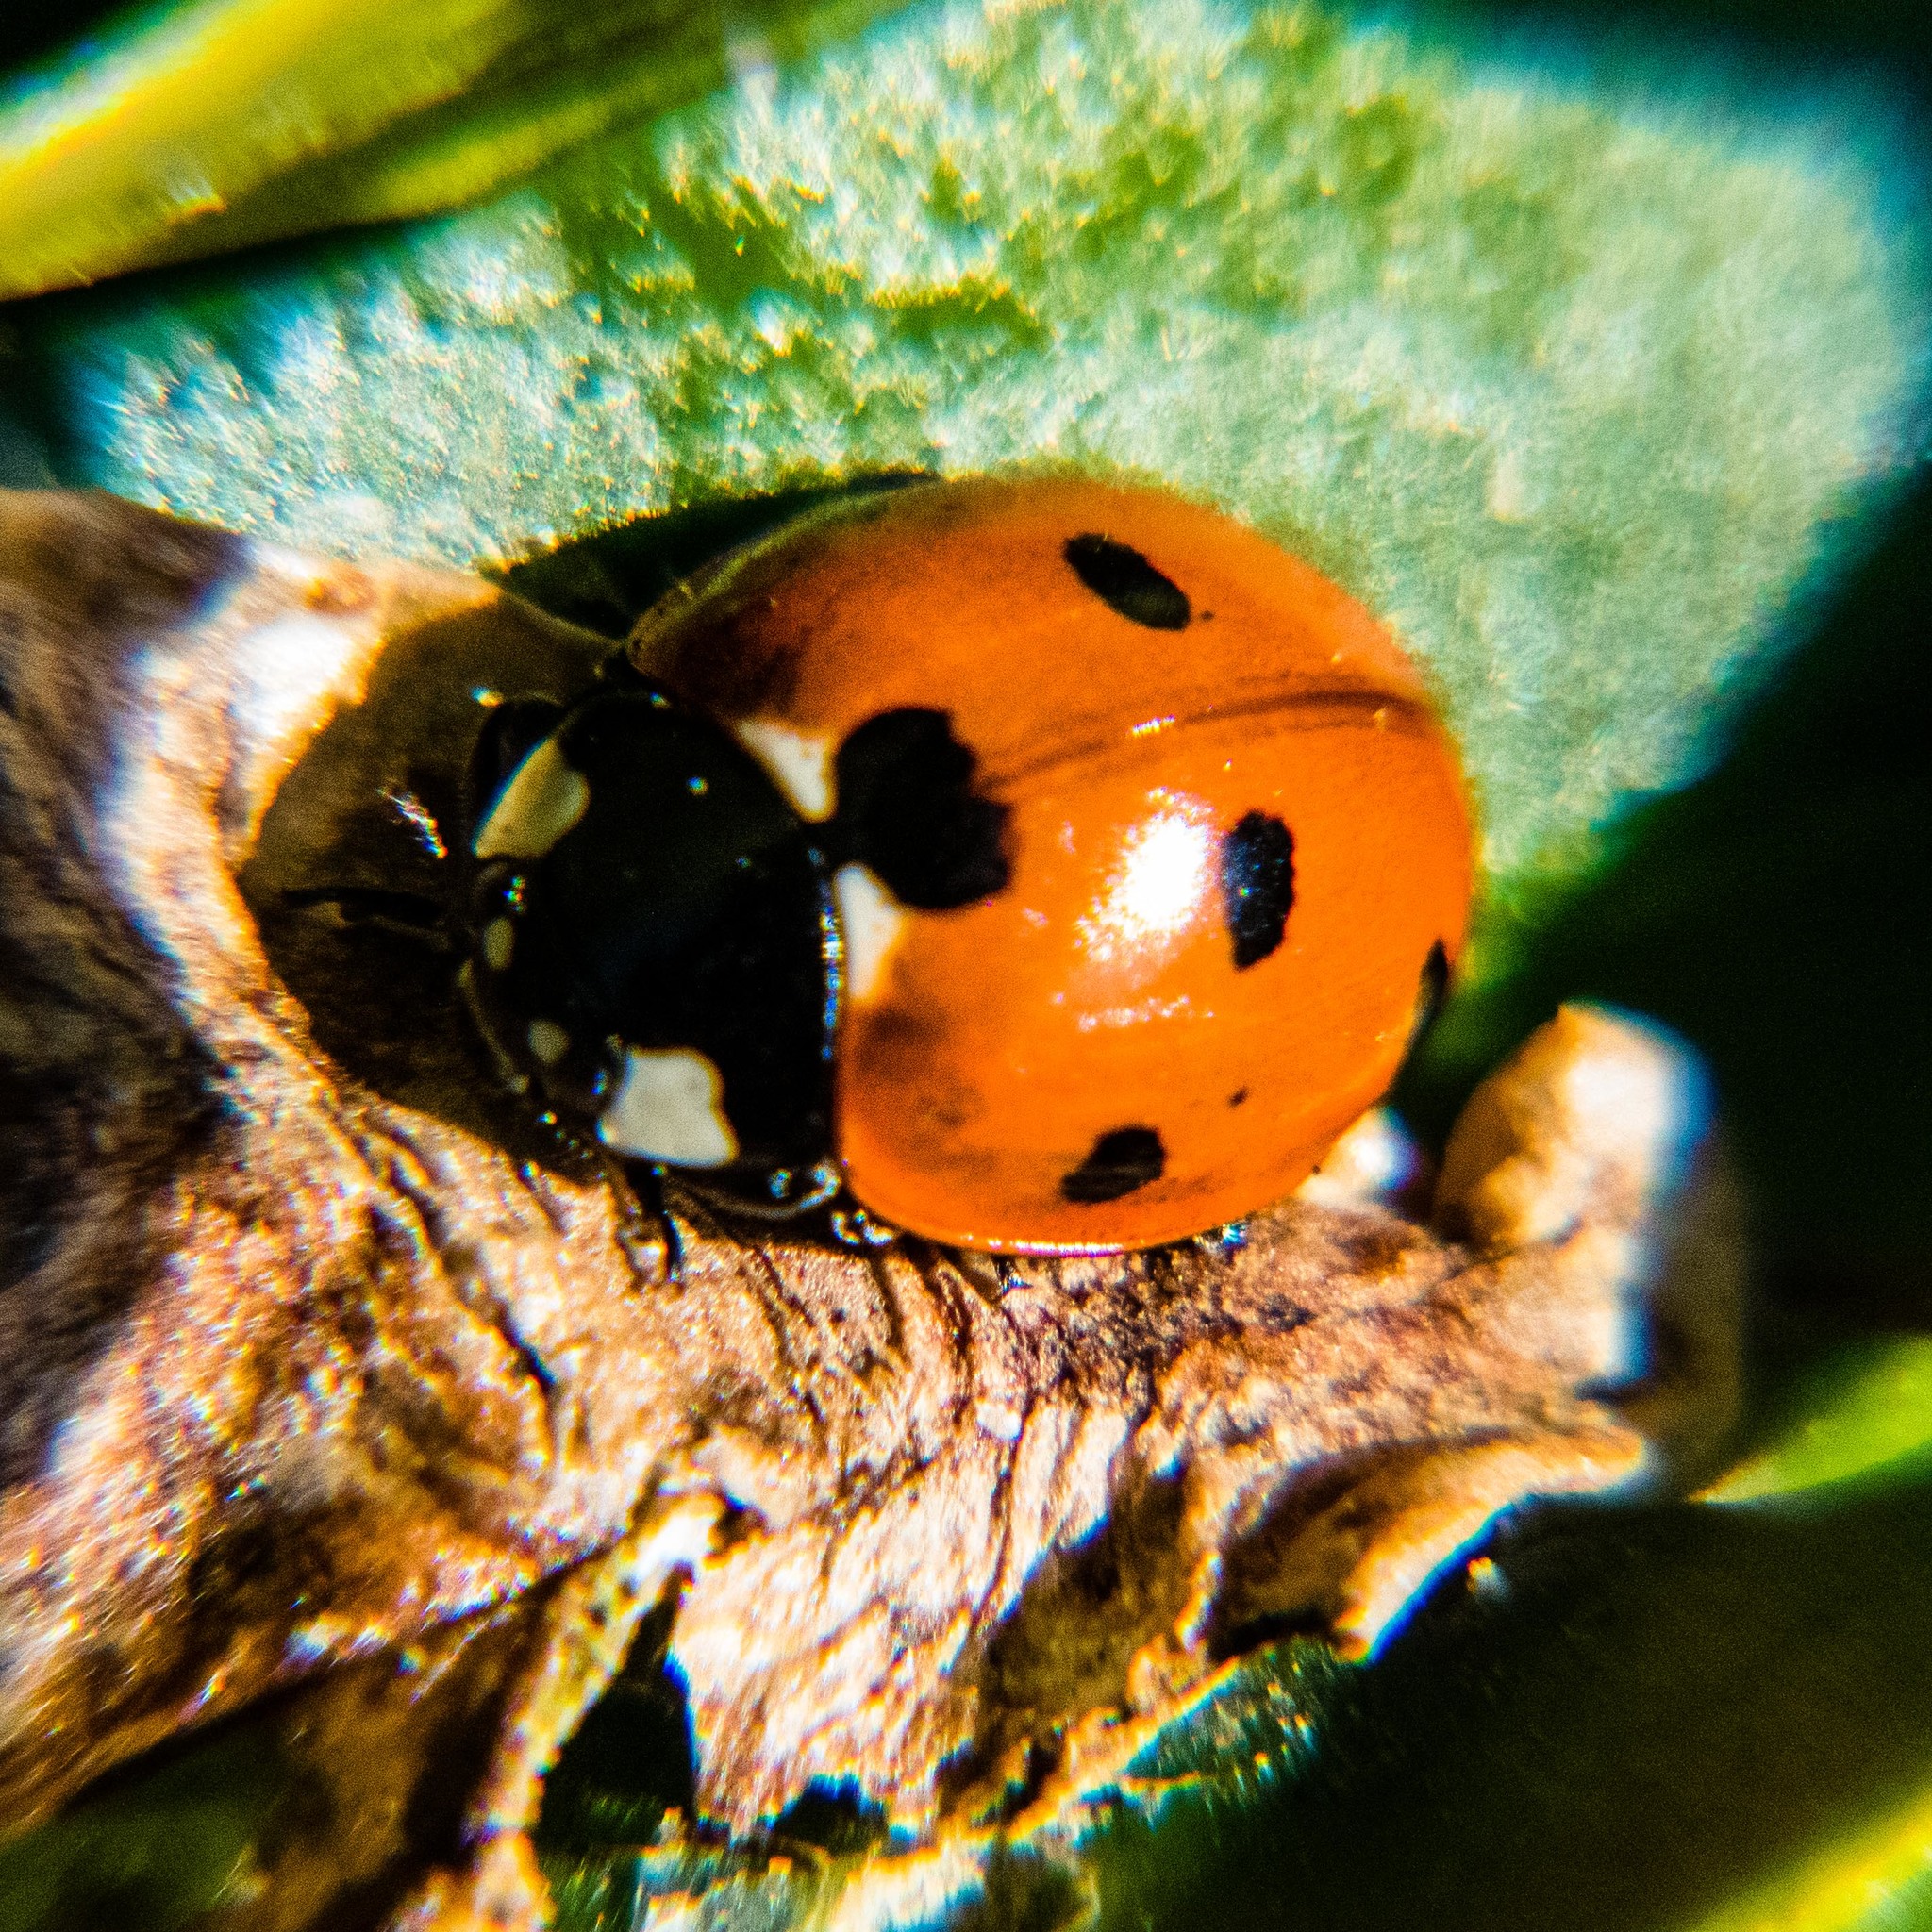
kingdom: Animalia
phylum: Arthropoda
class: Insecta
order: Coleoptera
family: Coccinellidae
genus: Coccinella
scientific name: Coccinella septempunctata
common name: Sevenspotted lady beetle
